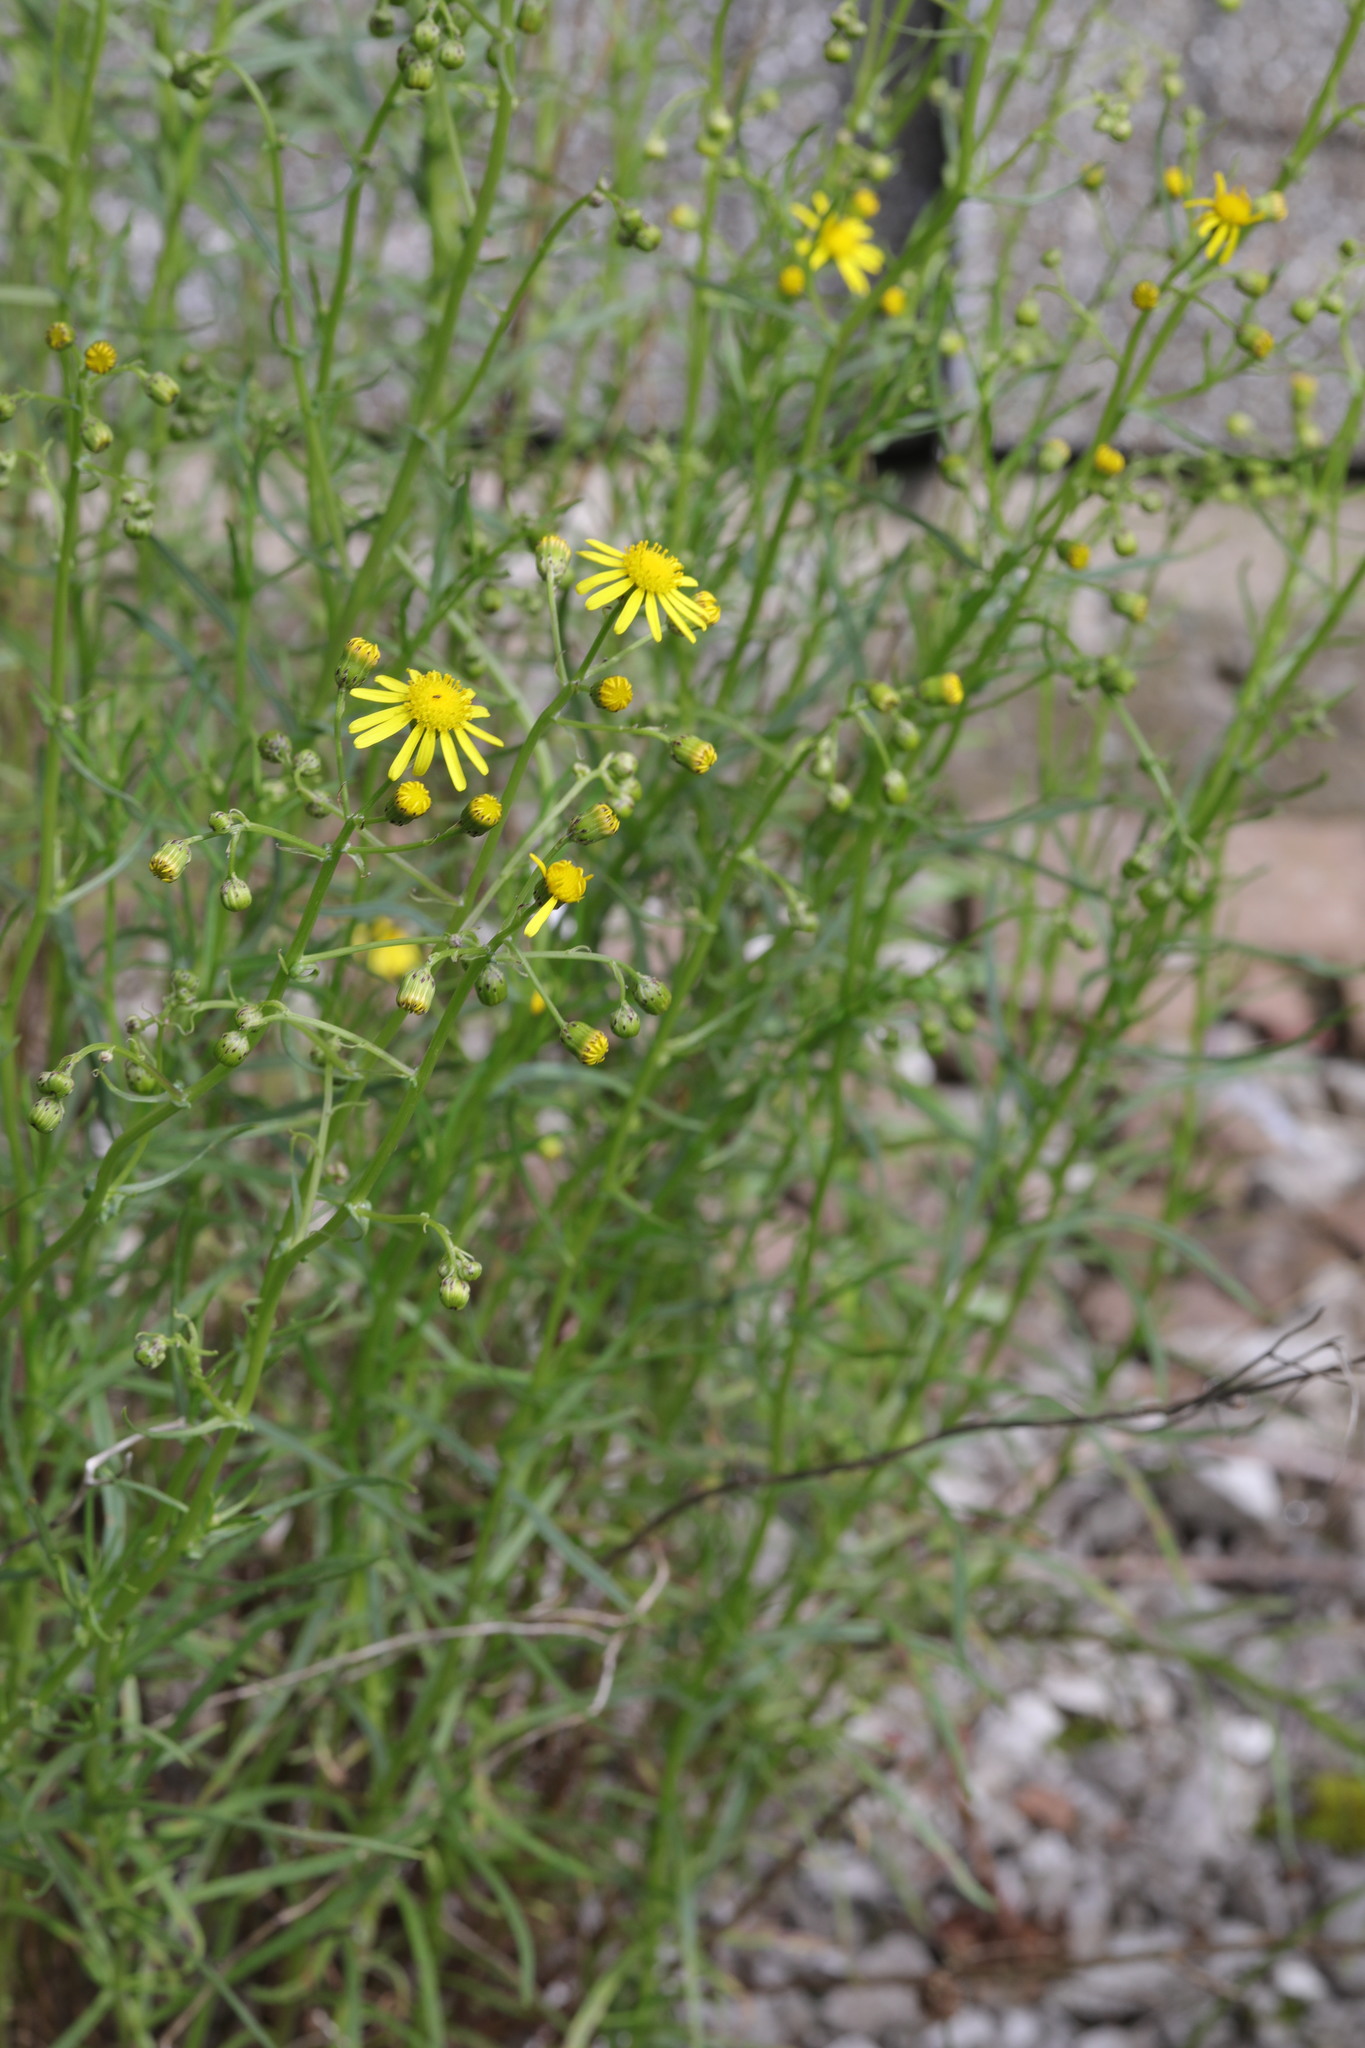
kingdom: Plantae
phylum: Tracheophyta
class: Magnoliopsida
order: Asterales
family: Asteraceae
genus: Senecio
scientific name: Senecio inaequidens
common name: Narrow-leaved ragwort
